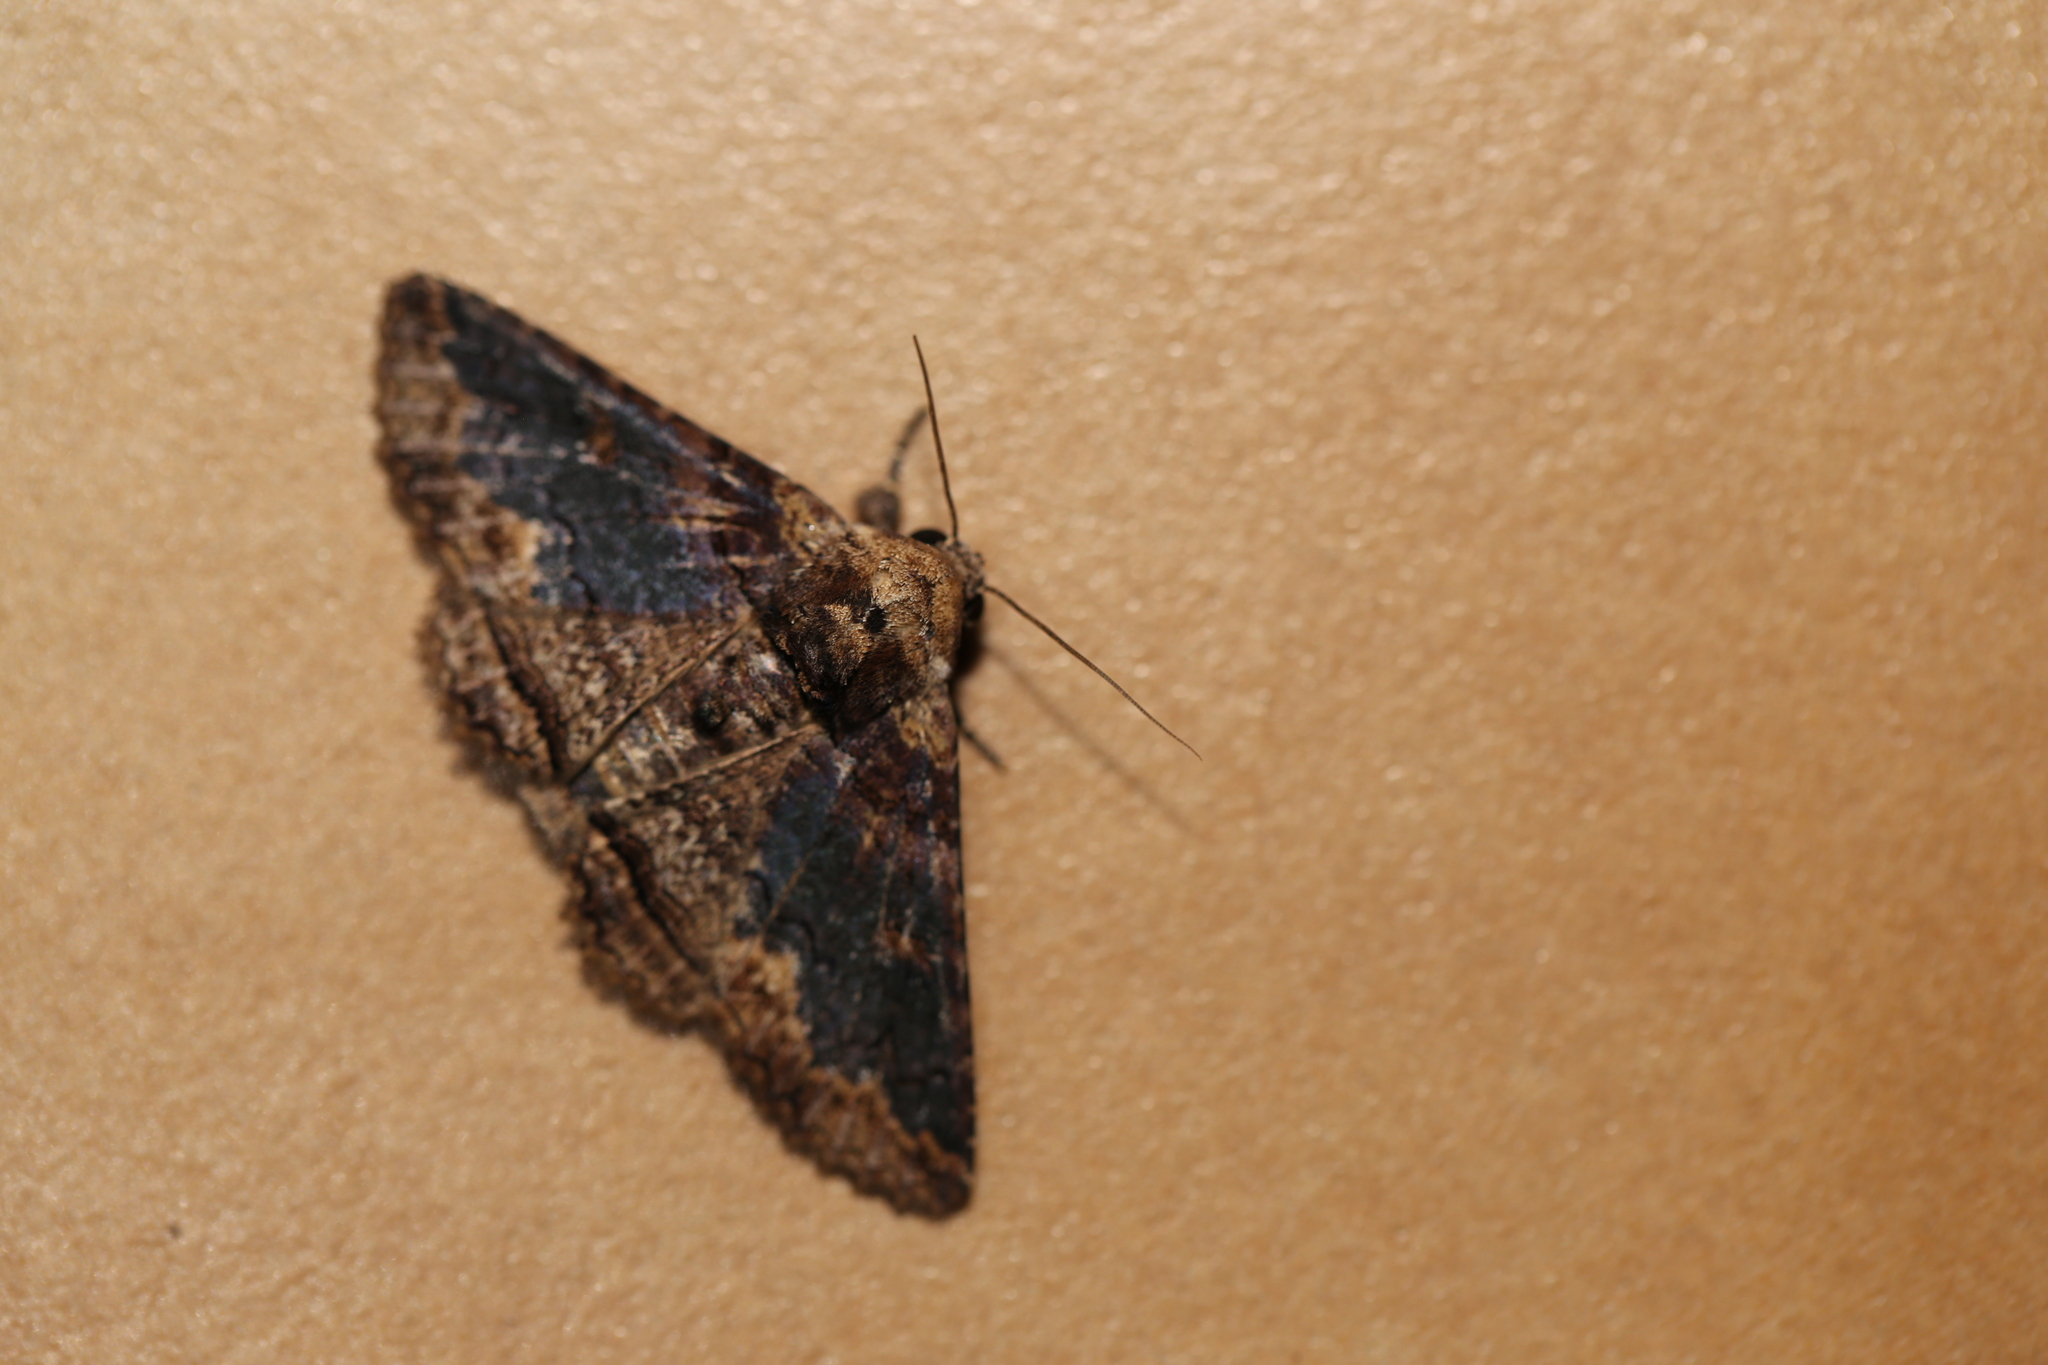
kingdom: Animalia
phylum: Arthropoda
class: Insecta
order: Lepidoptera
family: Erebidae
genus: Pericyma
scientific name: Pericyma cruegeri
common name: Poinciana looper
